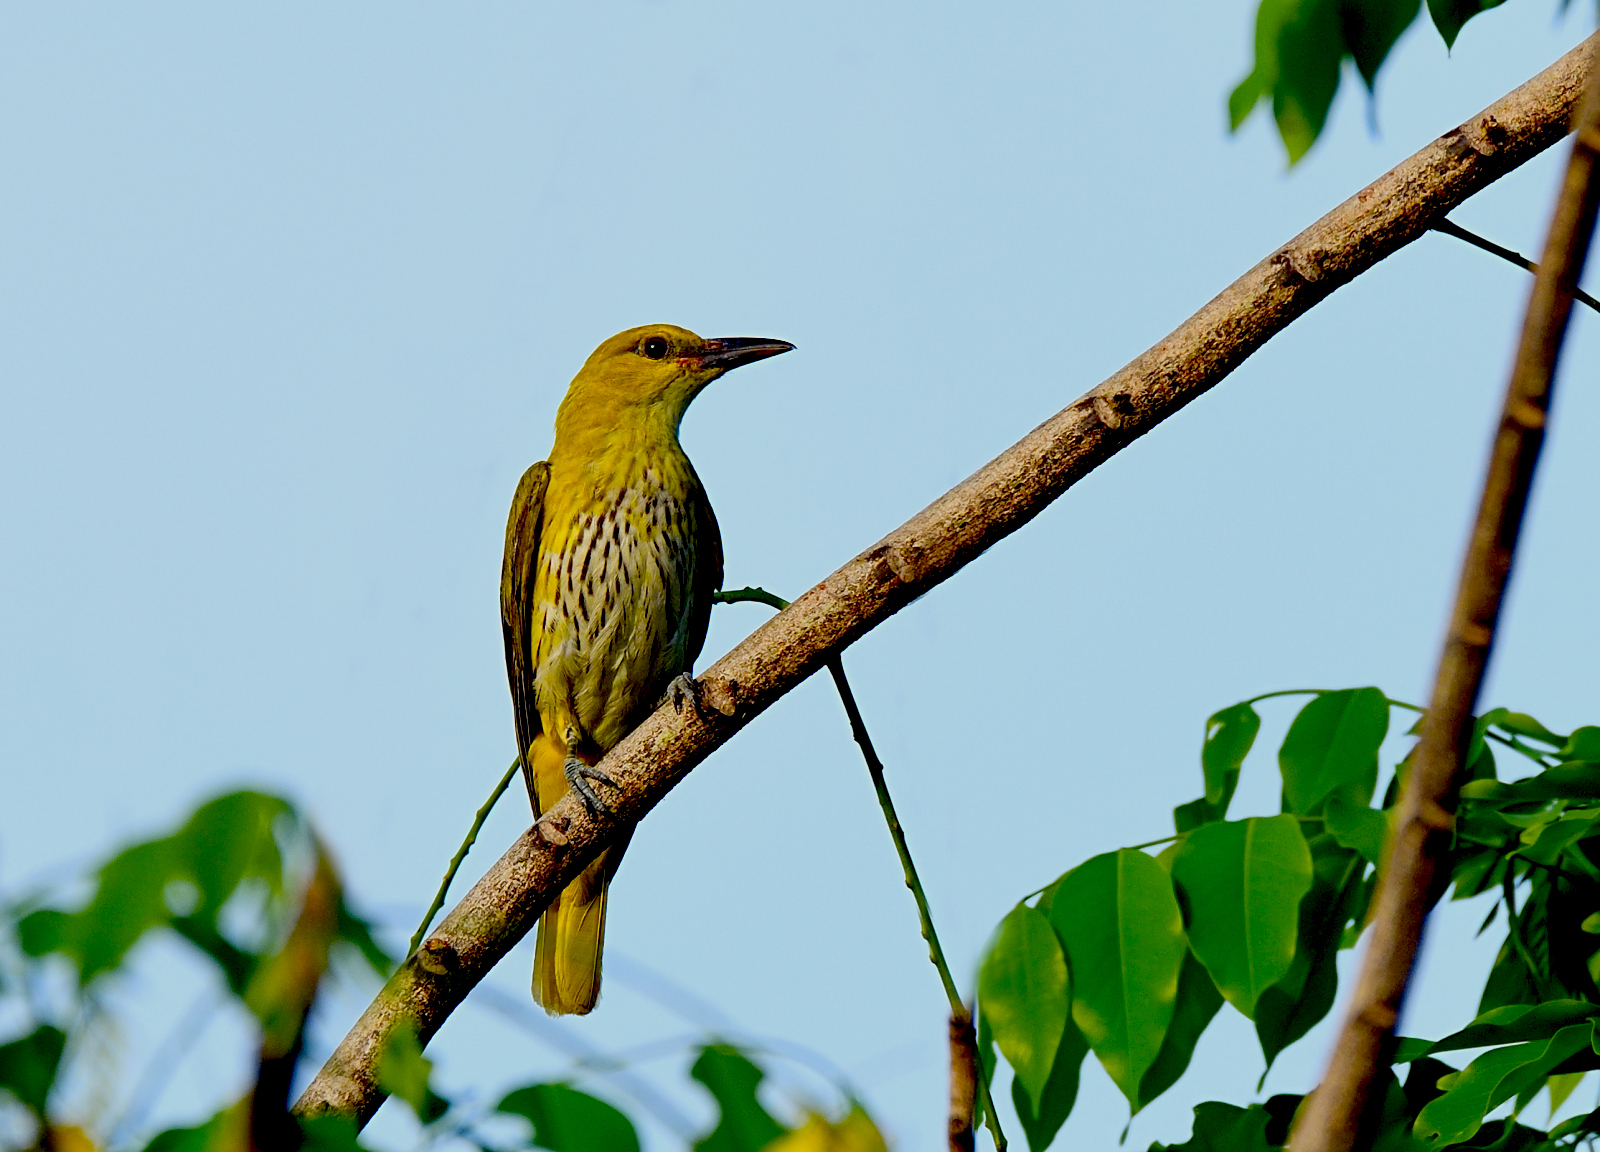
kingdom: Animalia
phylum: Chordata
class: Aves
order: Passeriformes
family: Oriolidae
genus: Oriolus
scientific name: Oriolus kundoo
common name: Indian golden oriole
